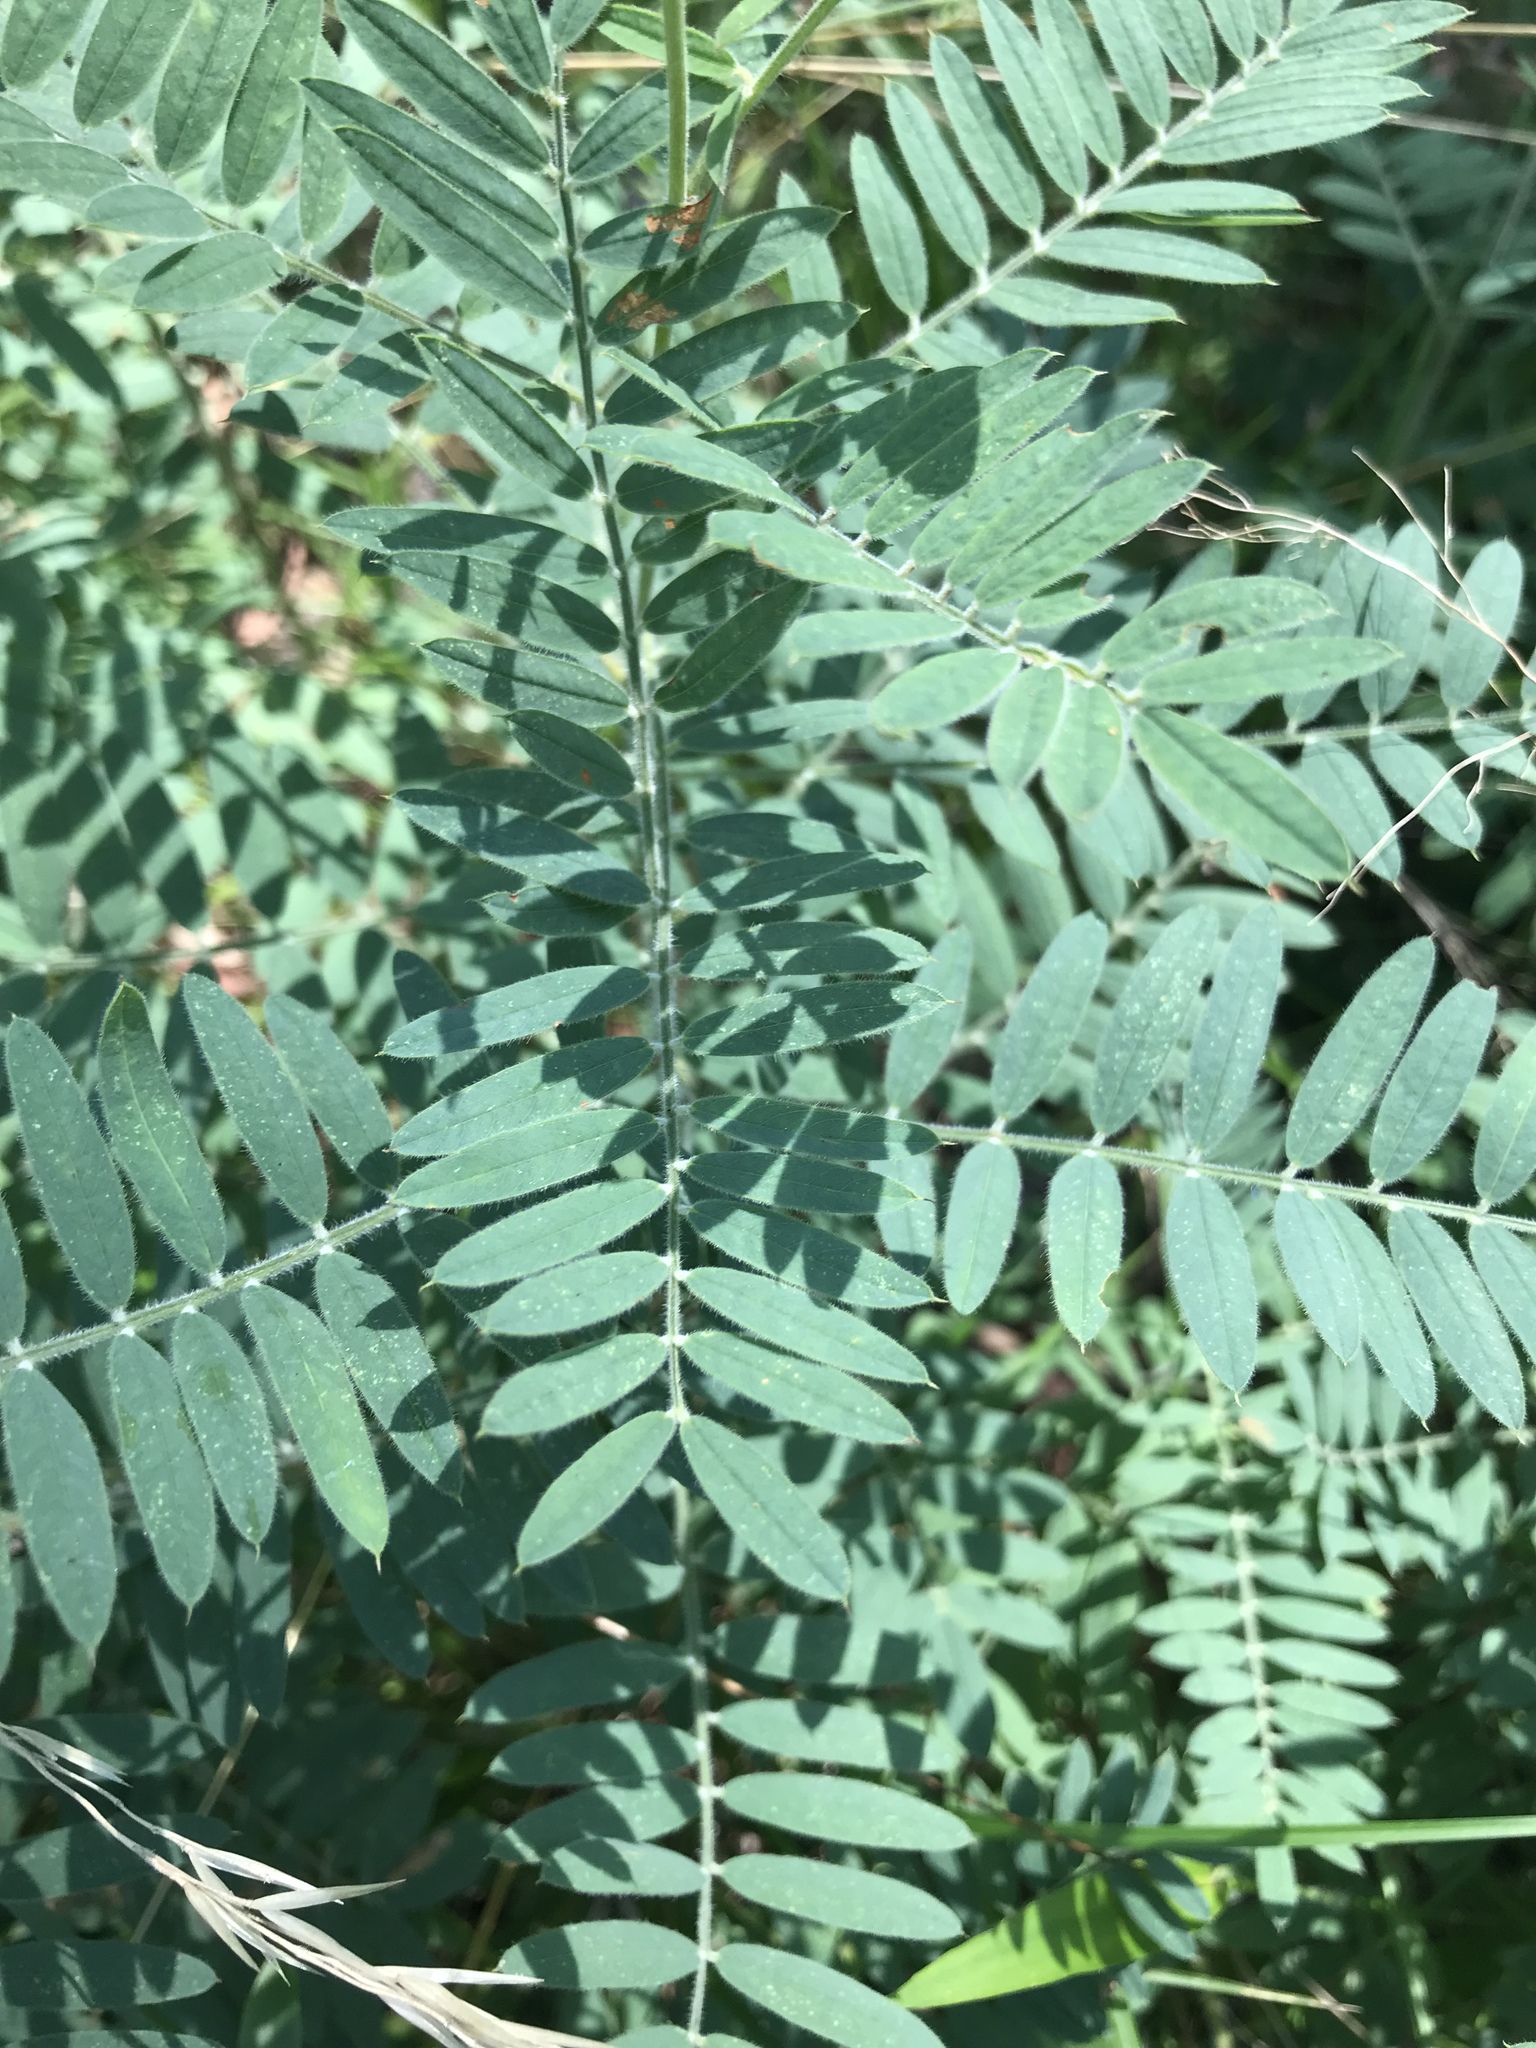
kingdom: Plantae
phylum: Tracheophyta
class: Magnoliopsida
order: Fabales
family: Fabaceae
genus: Tephrosia
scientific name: Tephrosia virginiana
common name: Rabbit-pea
